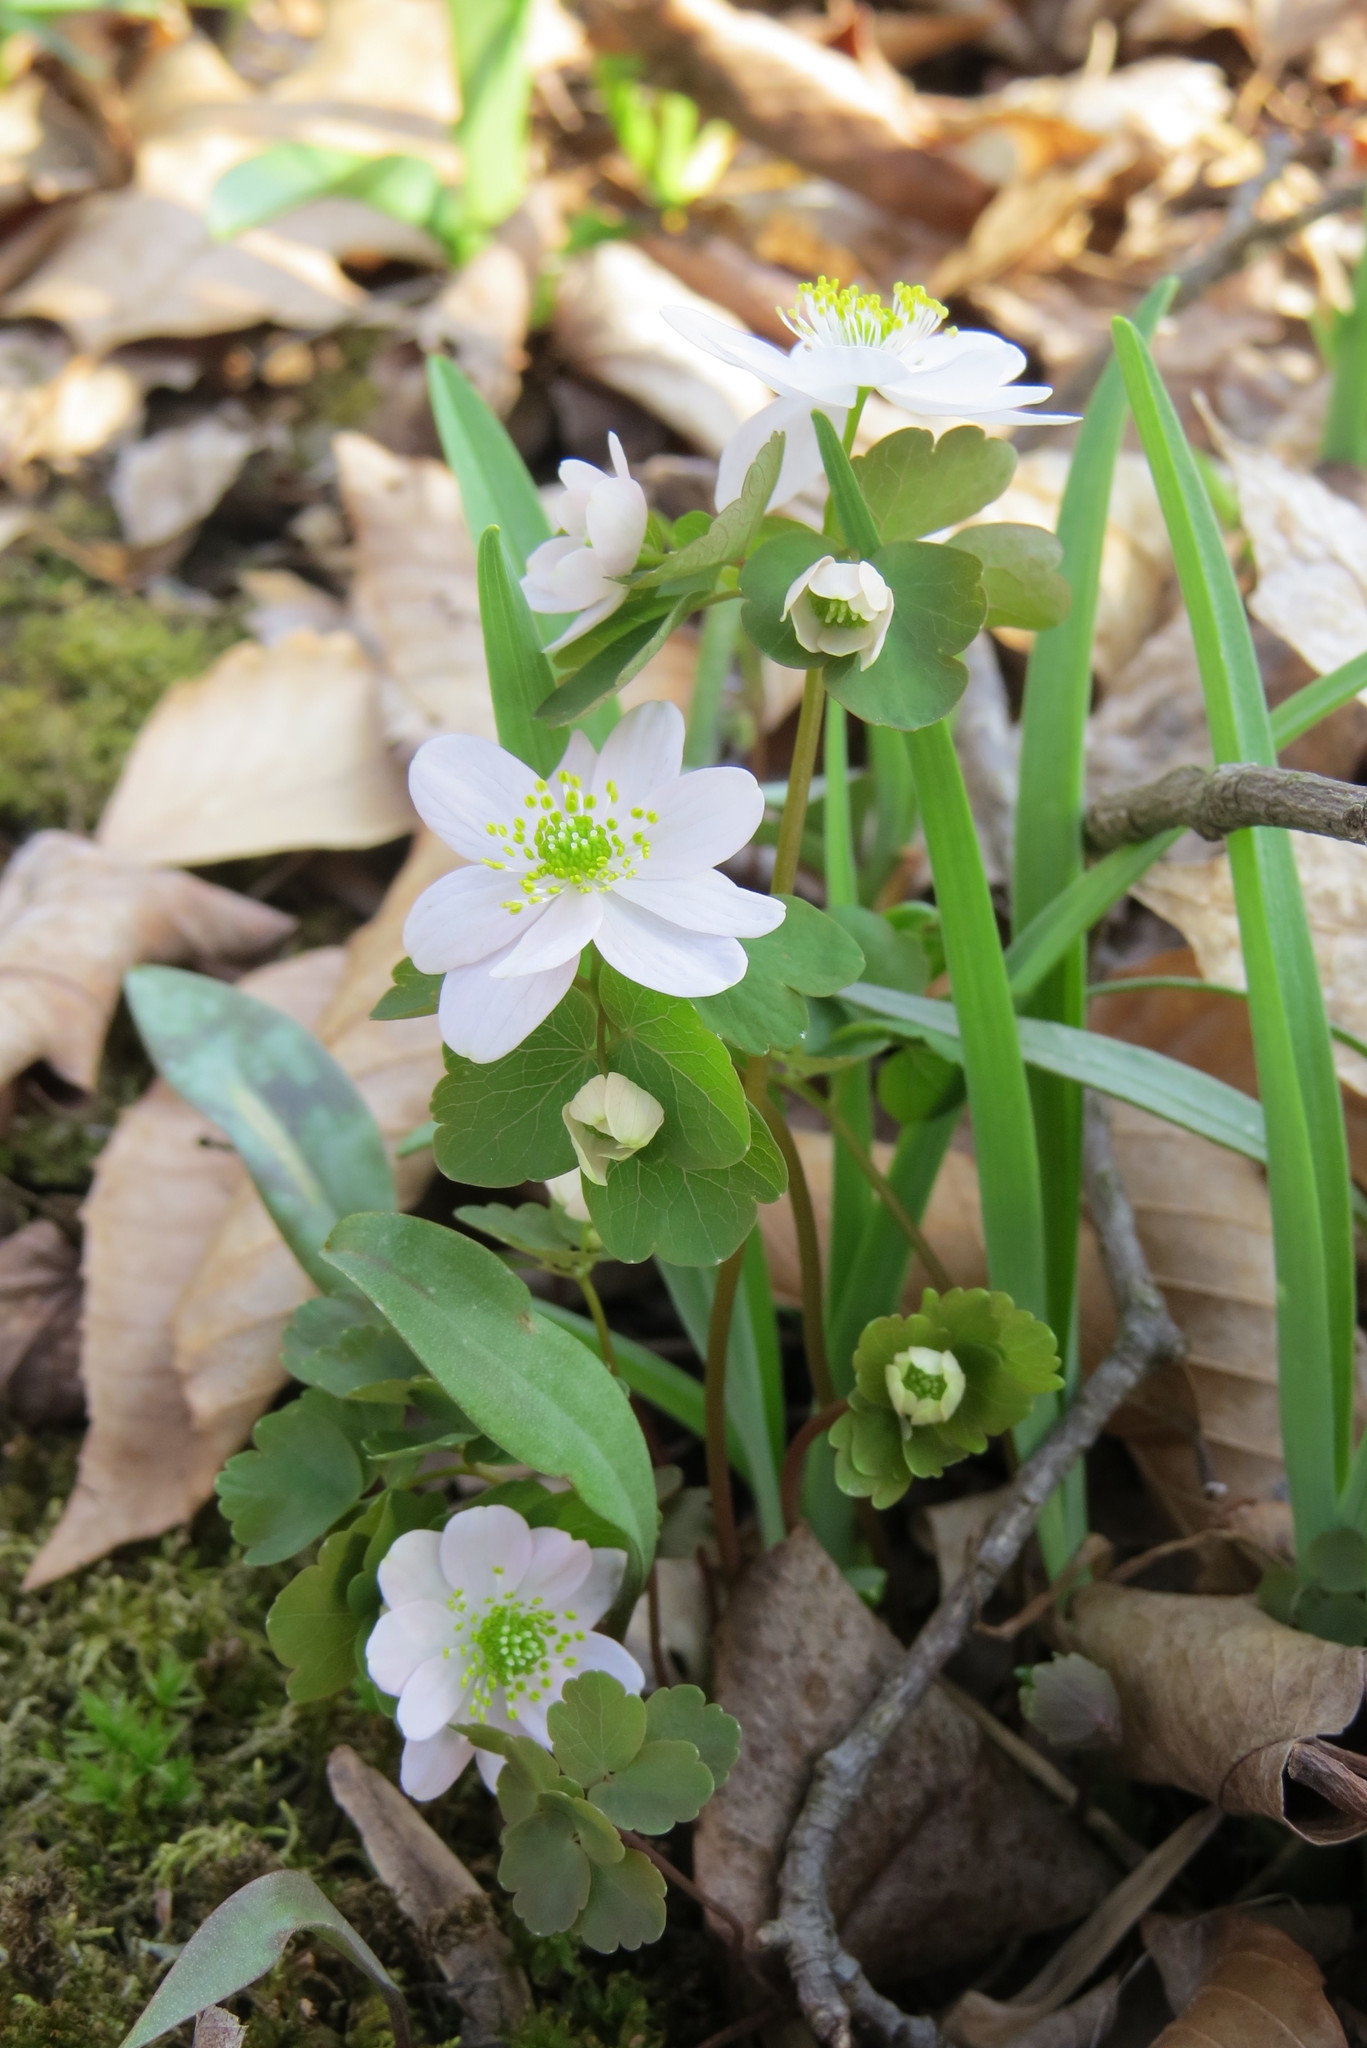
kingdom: Plantae
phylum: Tracheophyta
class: Magnoliopsida
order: Ranunculales
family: Ranunculaceae
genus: Thalictrum
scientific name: Thalictrum thalictroides
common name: Rue-anemone
